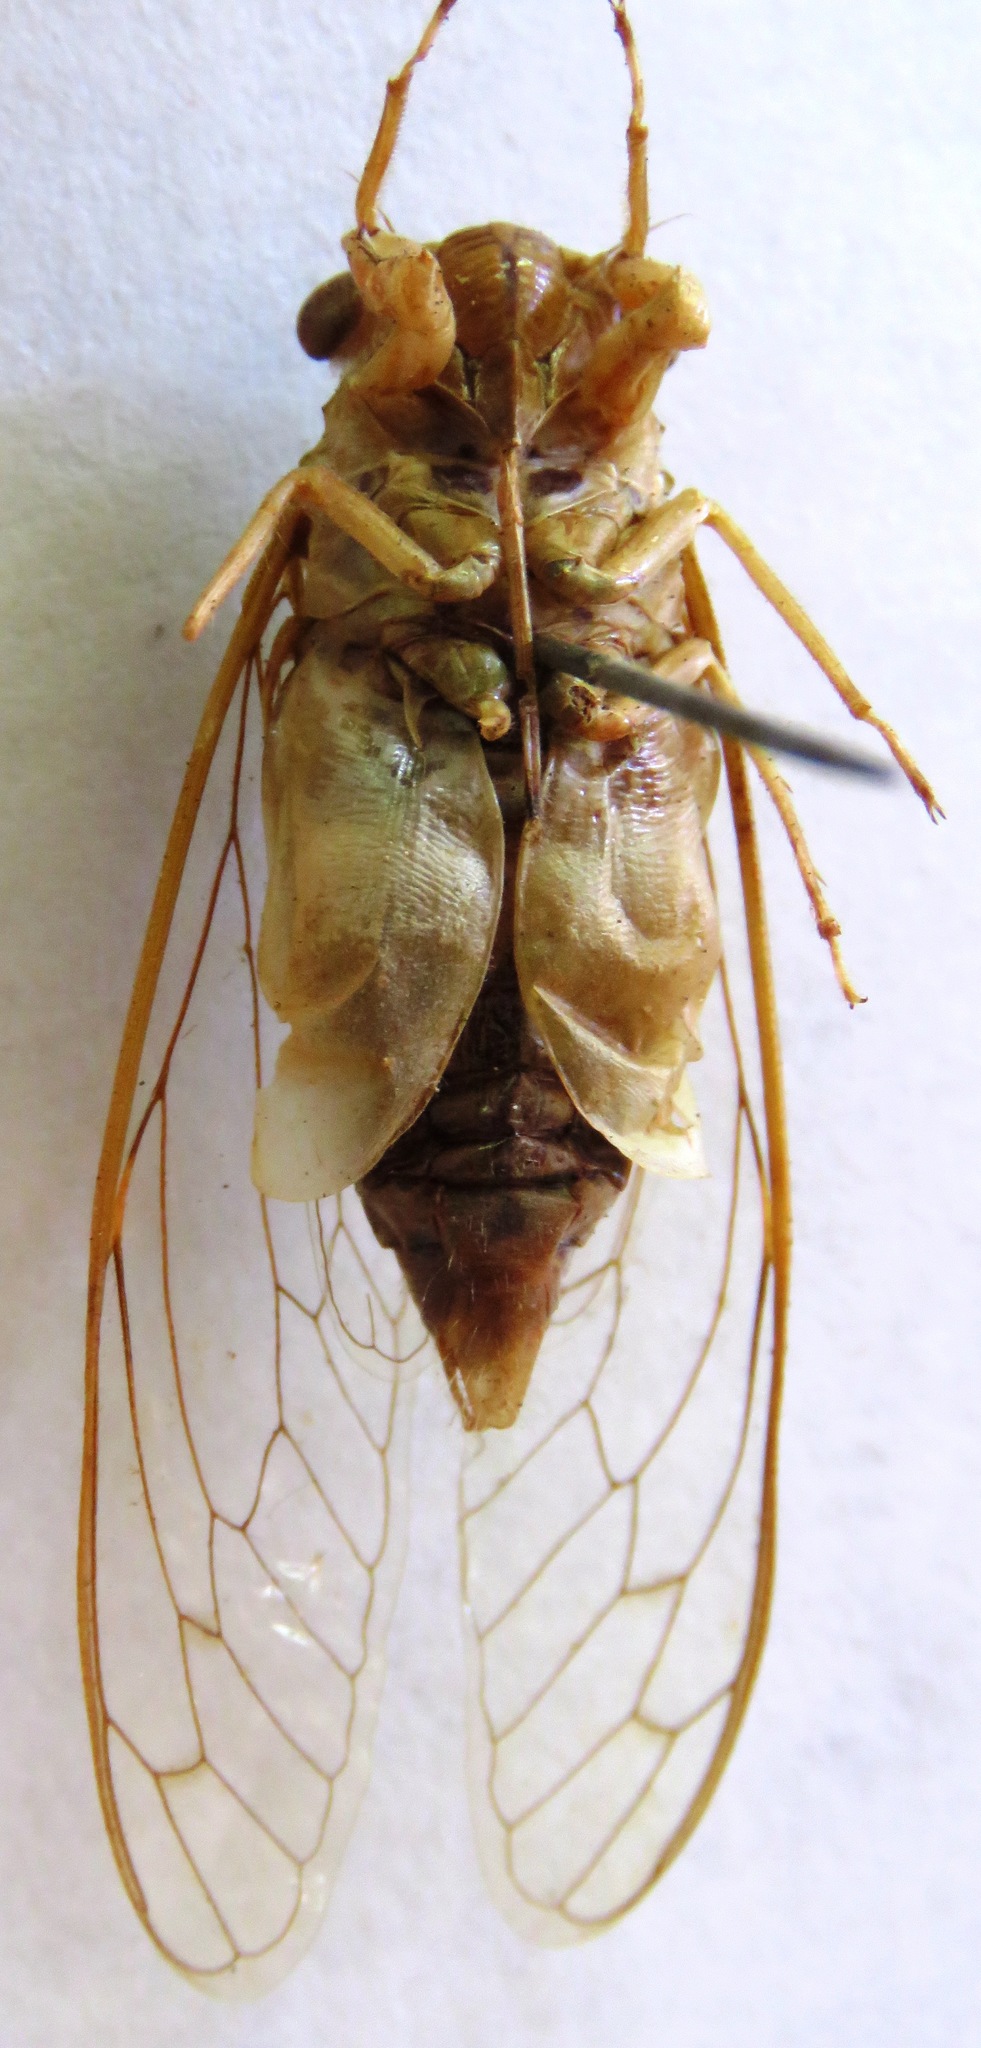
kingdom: Animalia
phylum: Arthropoda
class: Insecta
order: Hemiptera
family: Cicadidae
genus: Dilobopyga
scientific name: Dilobopyga operculata
